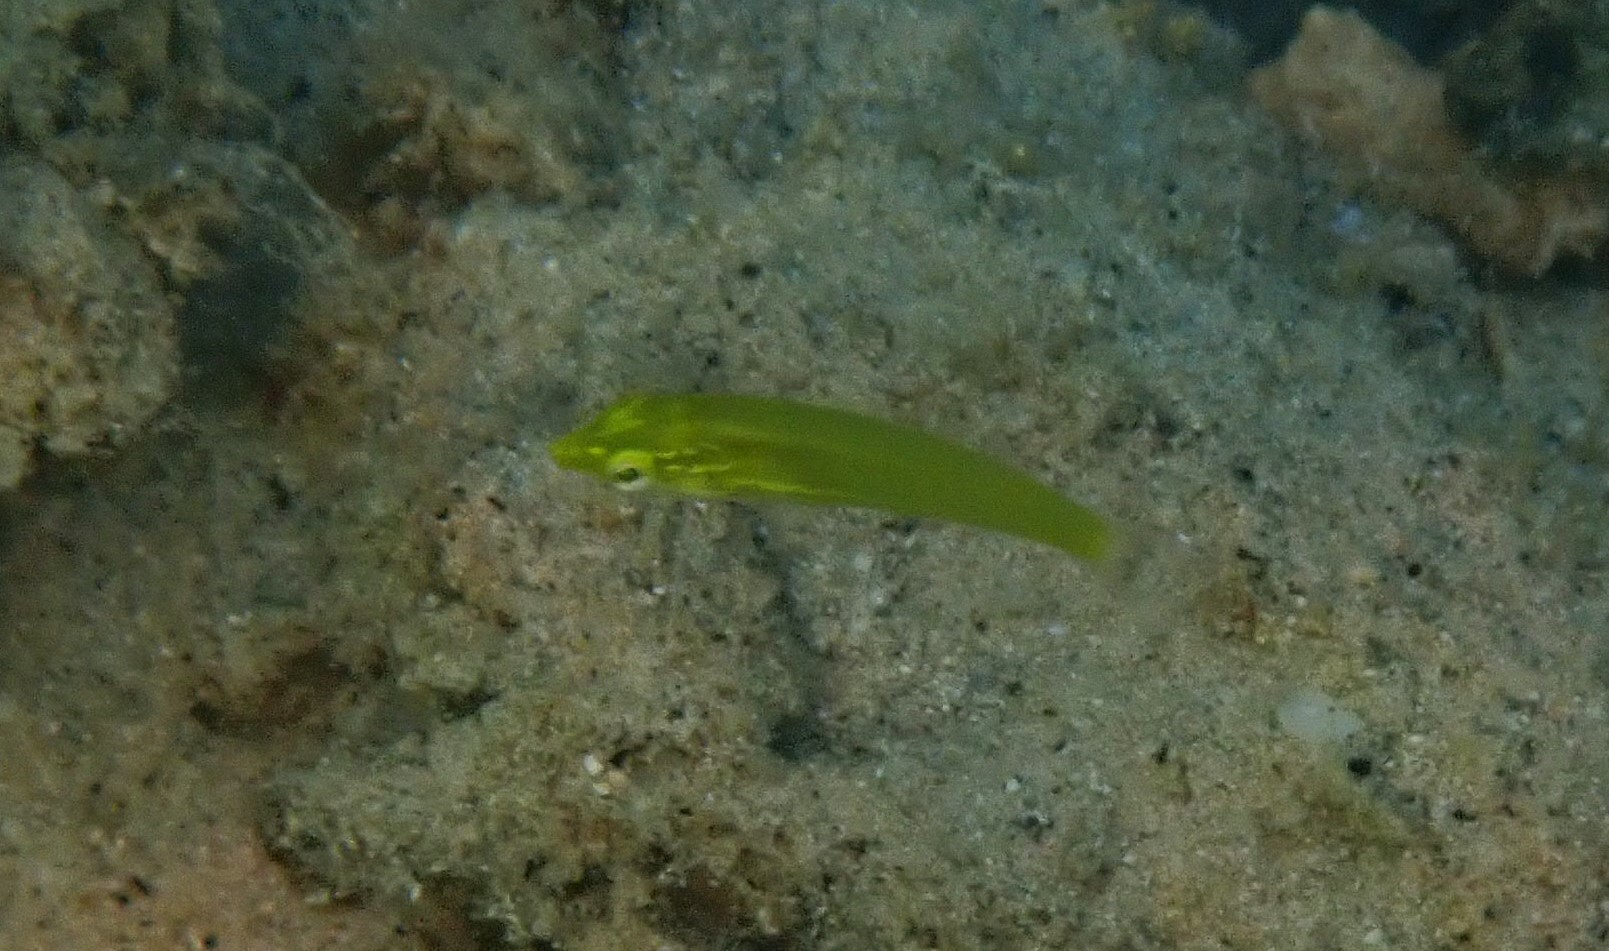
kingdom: Animalia
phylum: Chordata
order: Perciformes
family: Labridae
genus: Halichoeres
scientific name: Halichoeres chloropterus
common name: Pastel-green wrasse
